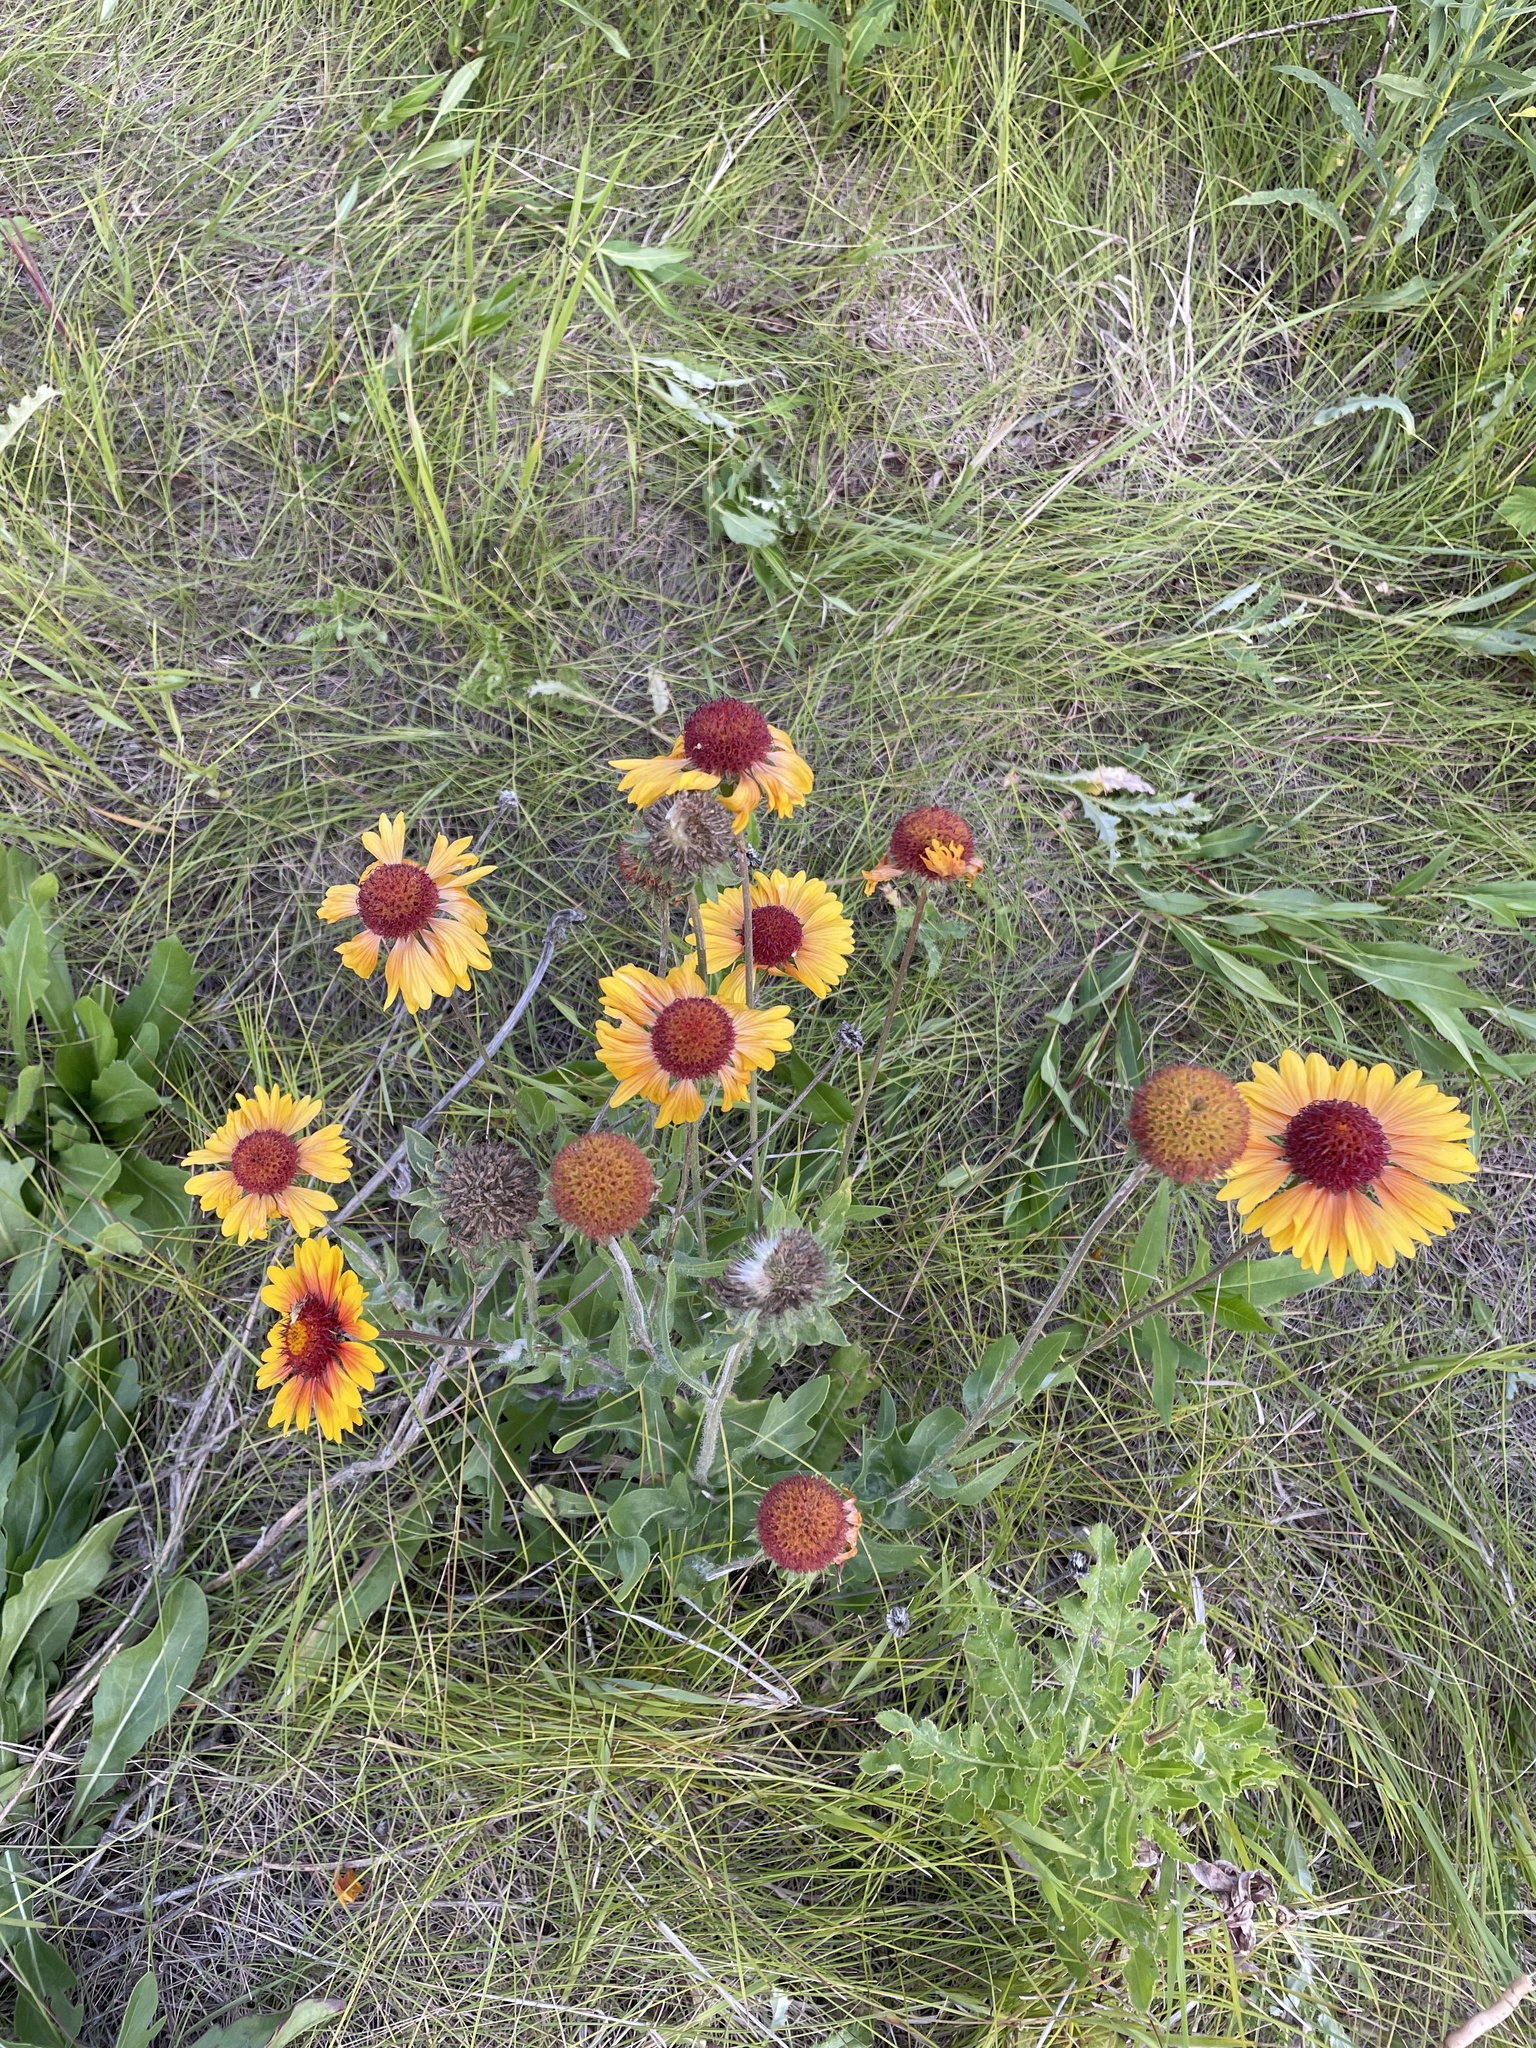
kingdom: Plantae
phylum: Tracheophyta
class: Magnoliopsida
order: Asterales
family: Asteraceae
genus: Gaillardia
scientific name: Gaillardia aristata
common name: Blanket-flower
